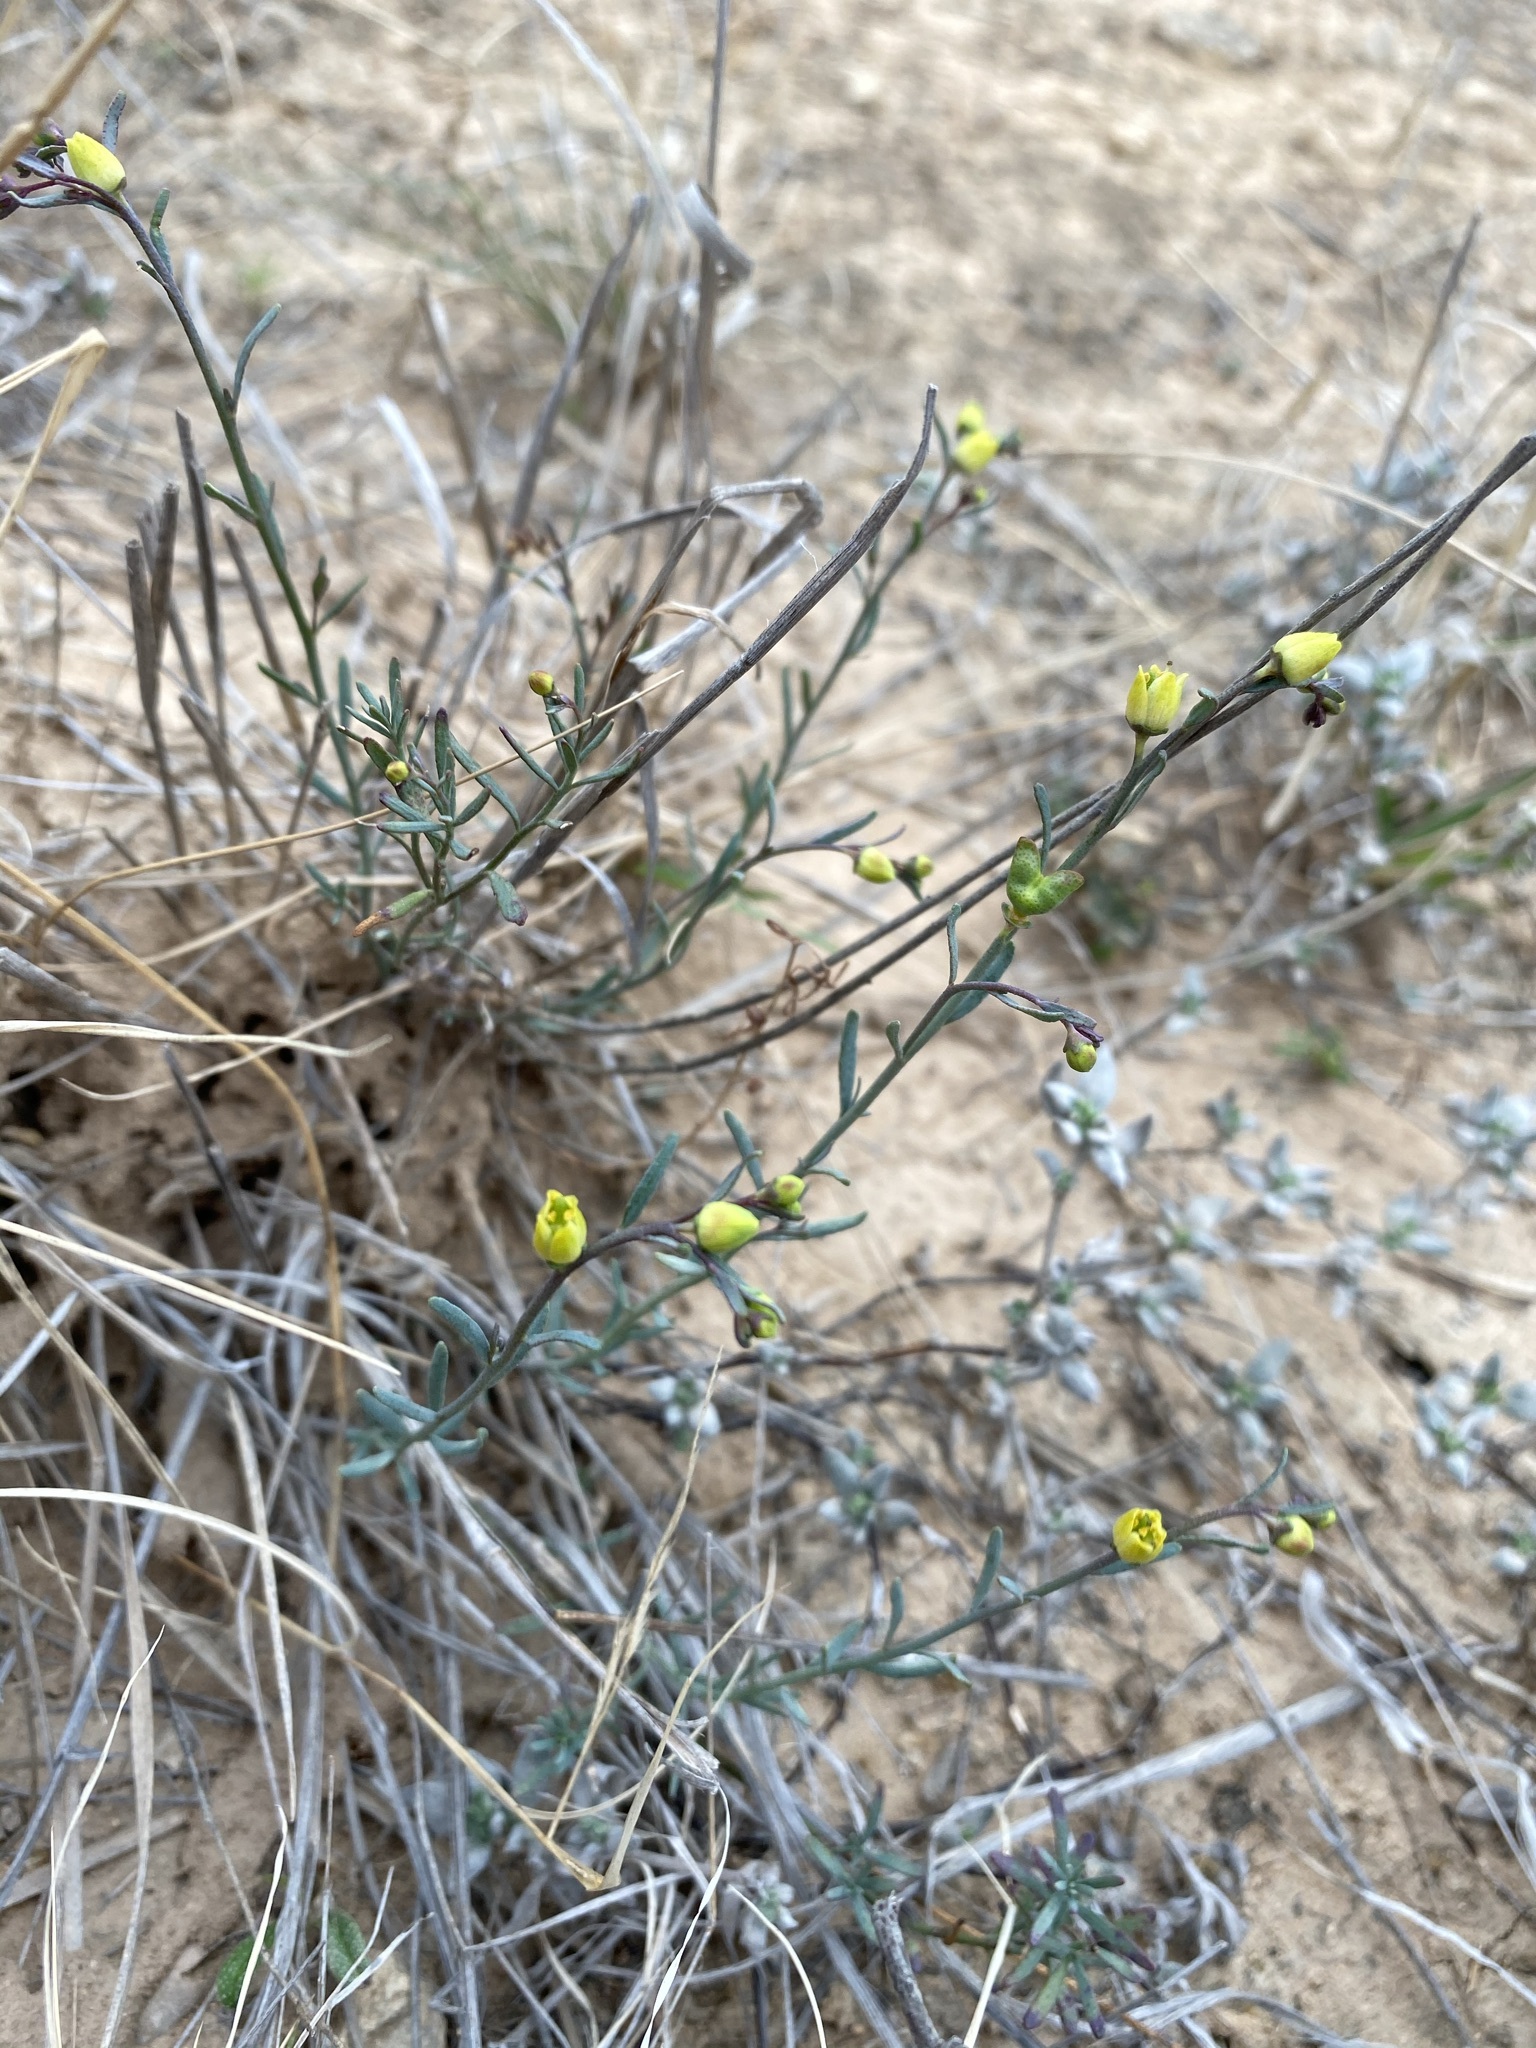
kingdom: Plantae
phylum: Tracheophyta
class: Magnoliopsida
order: Sapindales
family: Rutaceae
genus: Thamnosma
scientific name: Thamnosma texana
